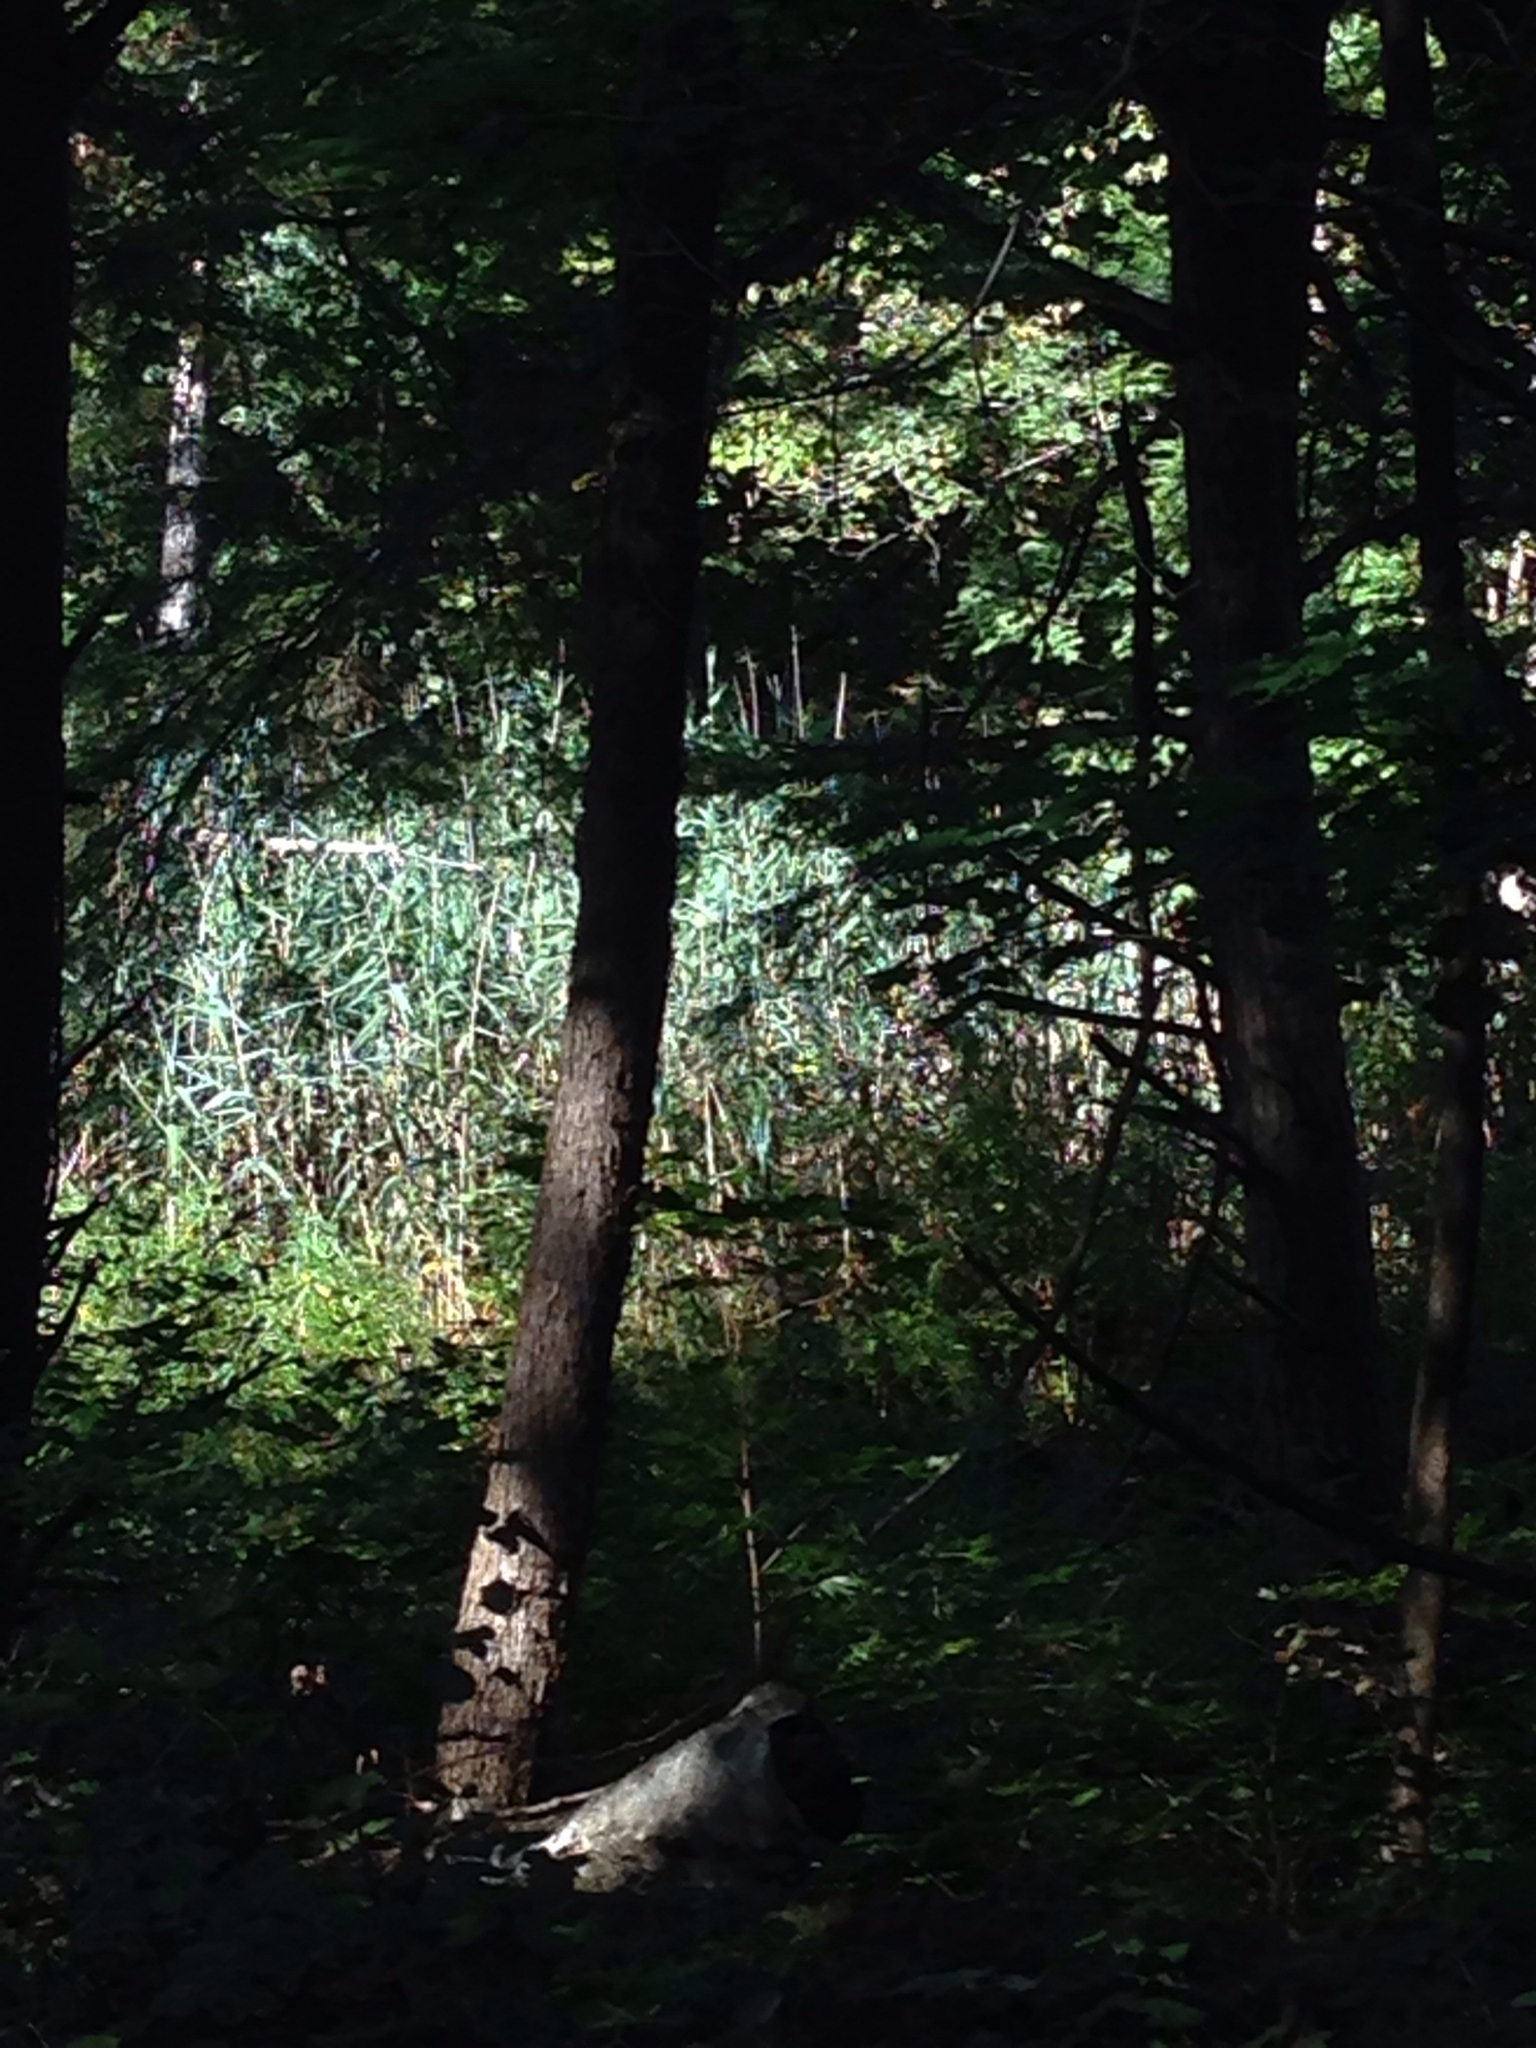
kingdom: Plantae
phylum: Tracheophyta
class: Liliopsida
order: Poales
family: Poaceae
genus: Phragmites
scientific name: Phragmites australis
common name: Common reed
